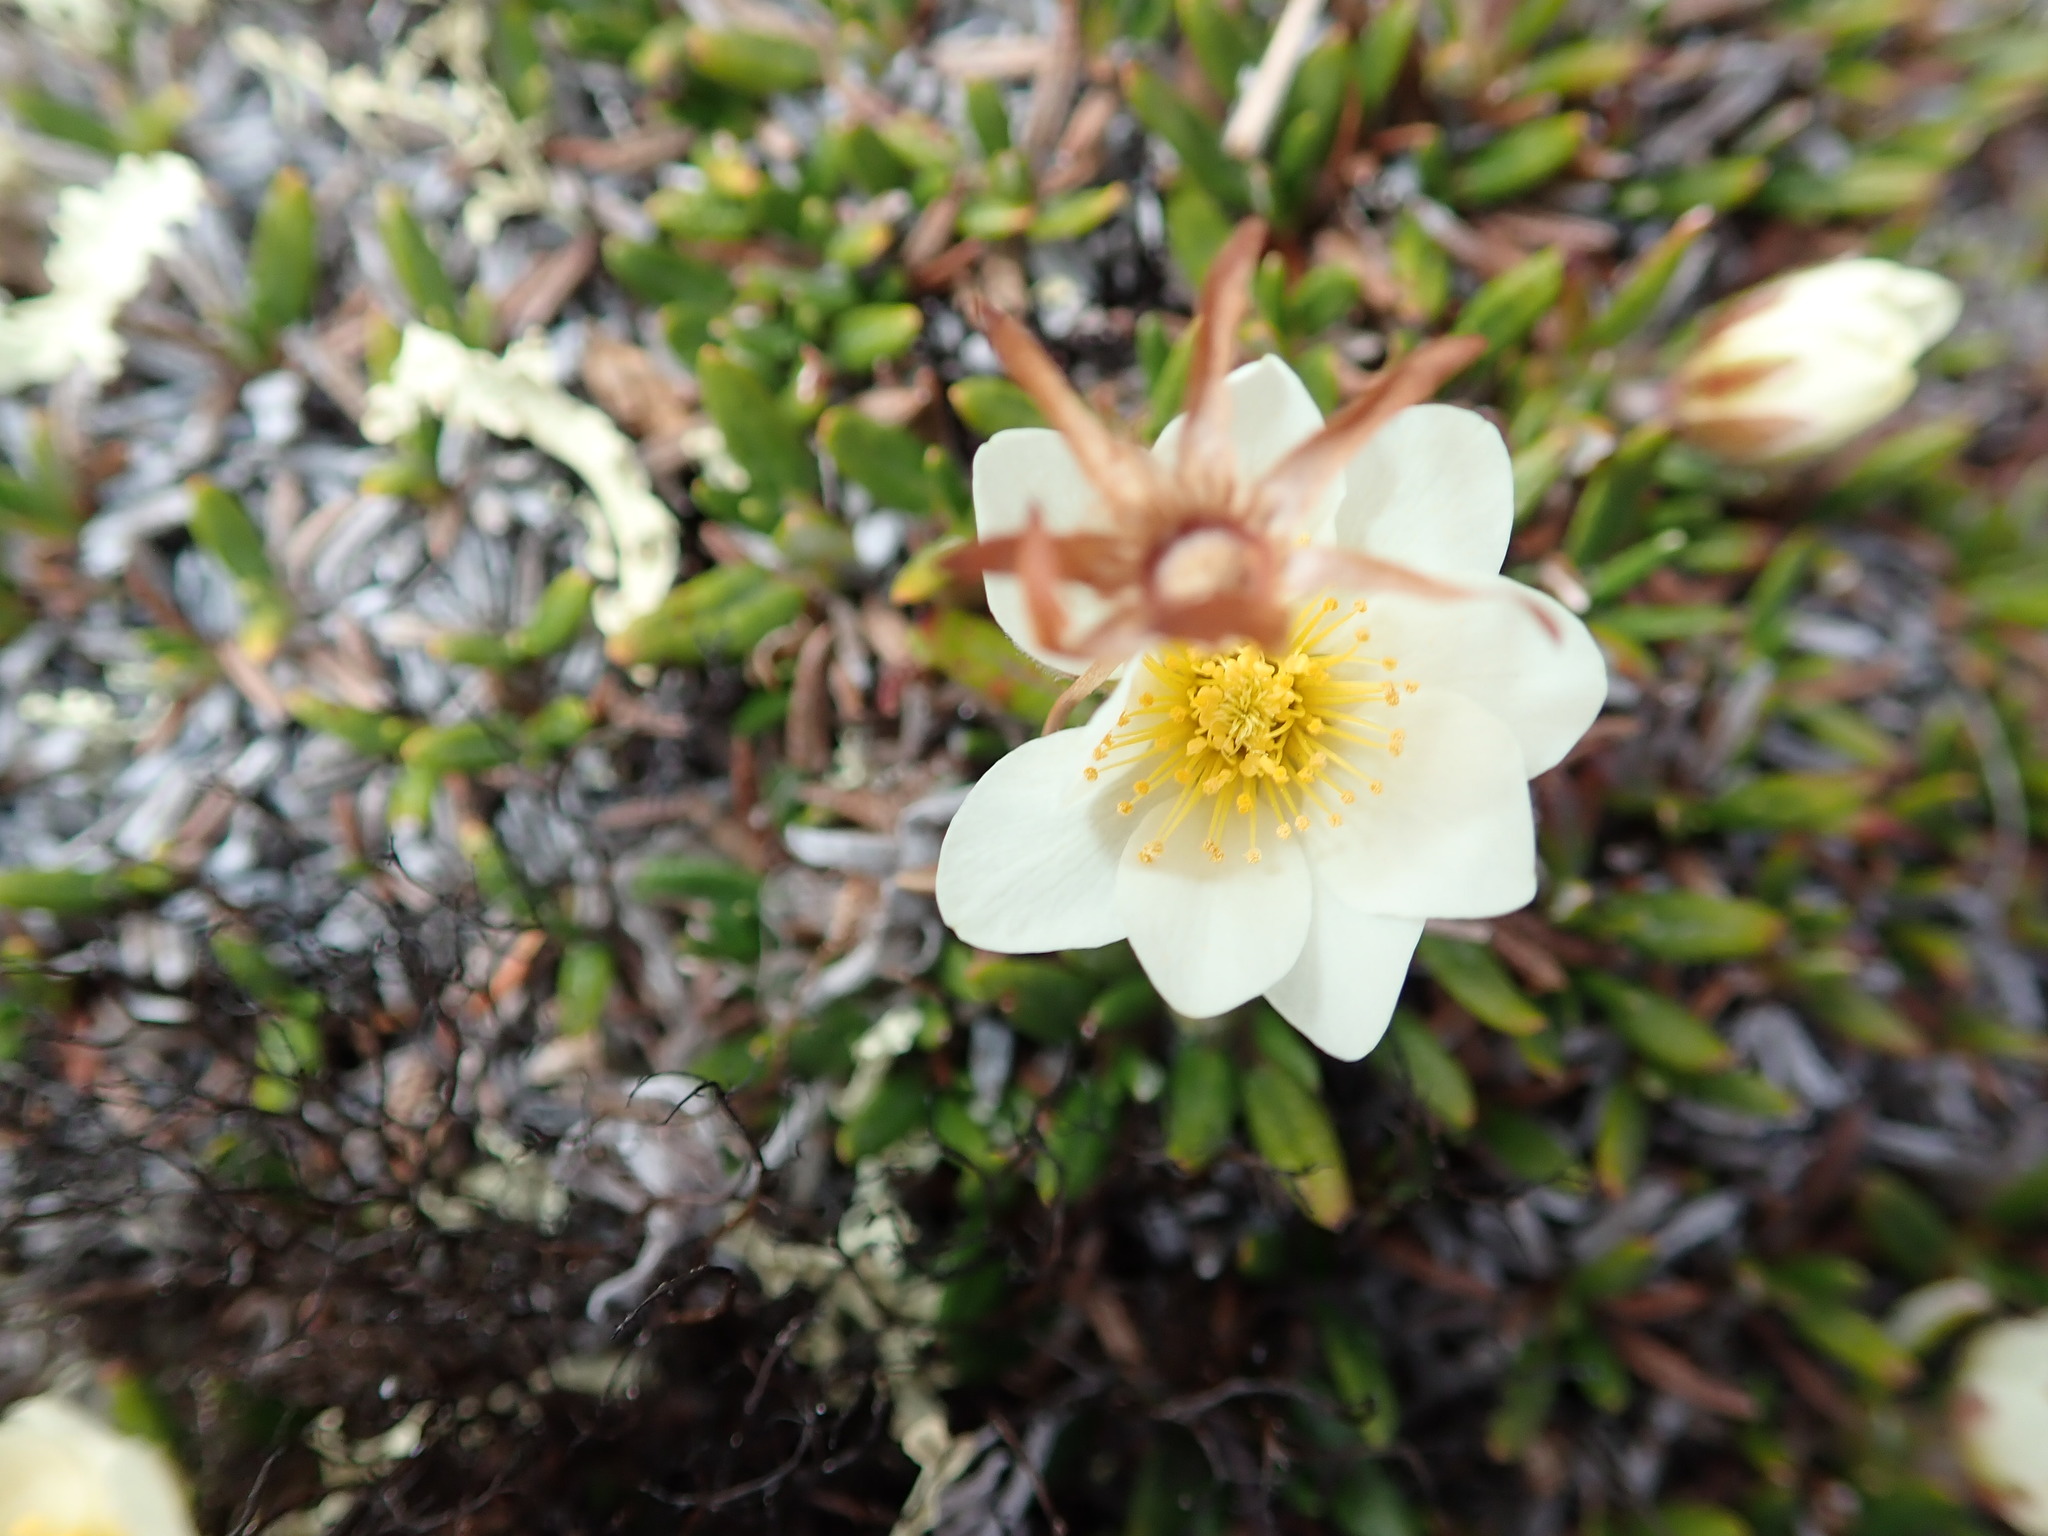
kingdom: Plantae
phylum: Tracheophyta
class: Magnoliopsida
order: Rosales
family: Rosaceae
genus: Dryas
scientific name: Dryas integrifolia
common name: Entire-leaved mountain avens
